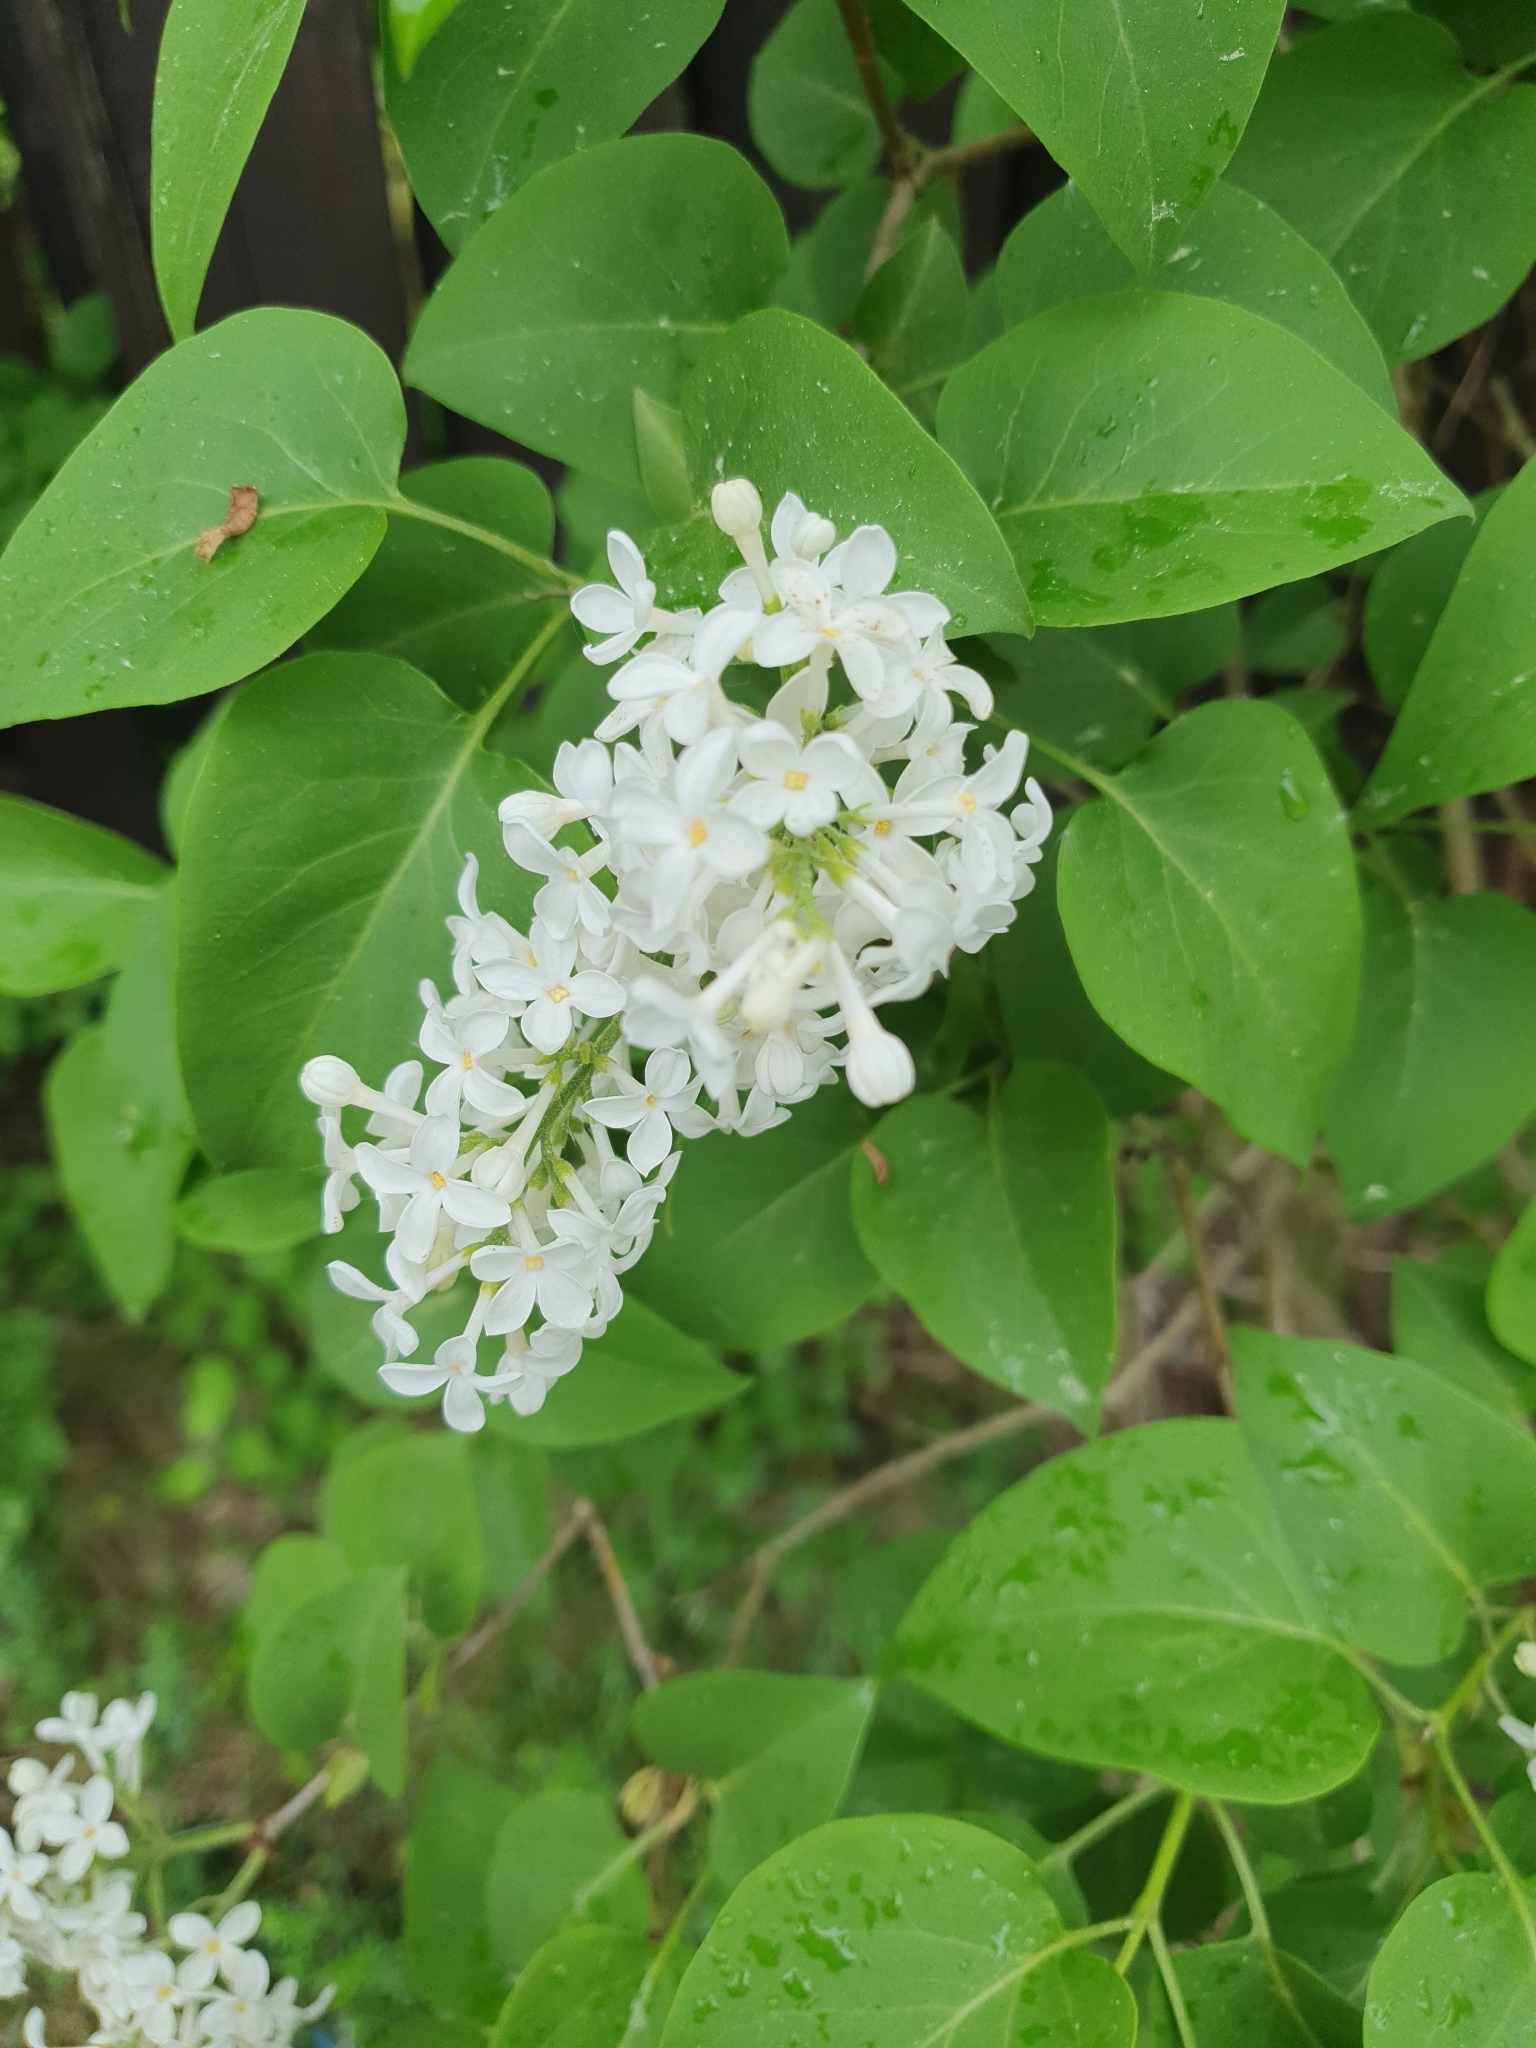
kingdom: Plantae
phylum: Tracheophyta
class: Magnoliopsida
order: Lamiales
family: Oleaceae
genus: Syringa
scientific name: Syringa vulgaris
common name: Common lilac
